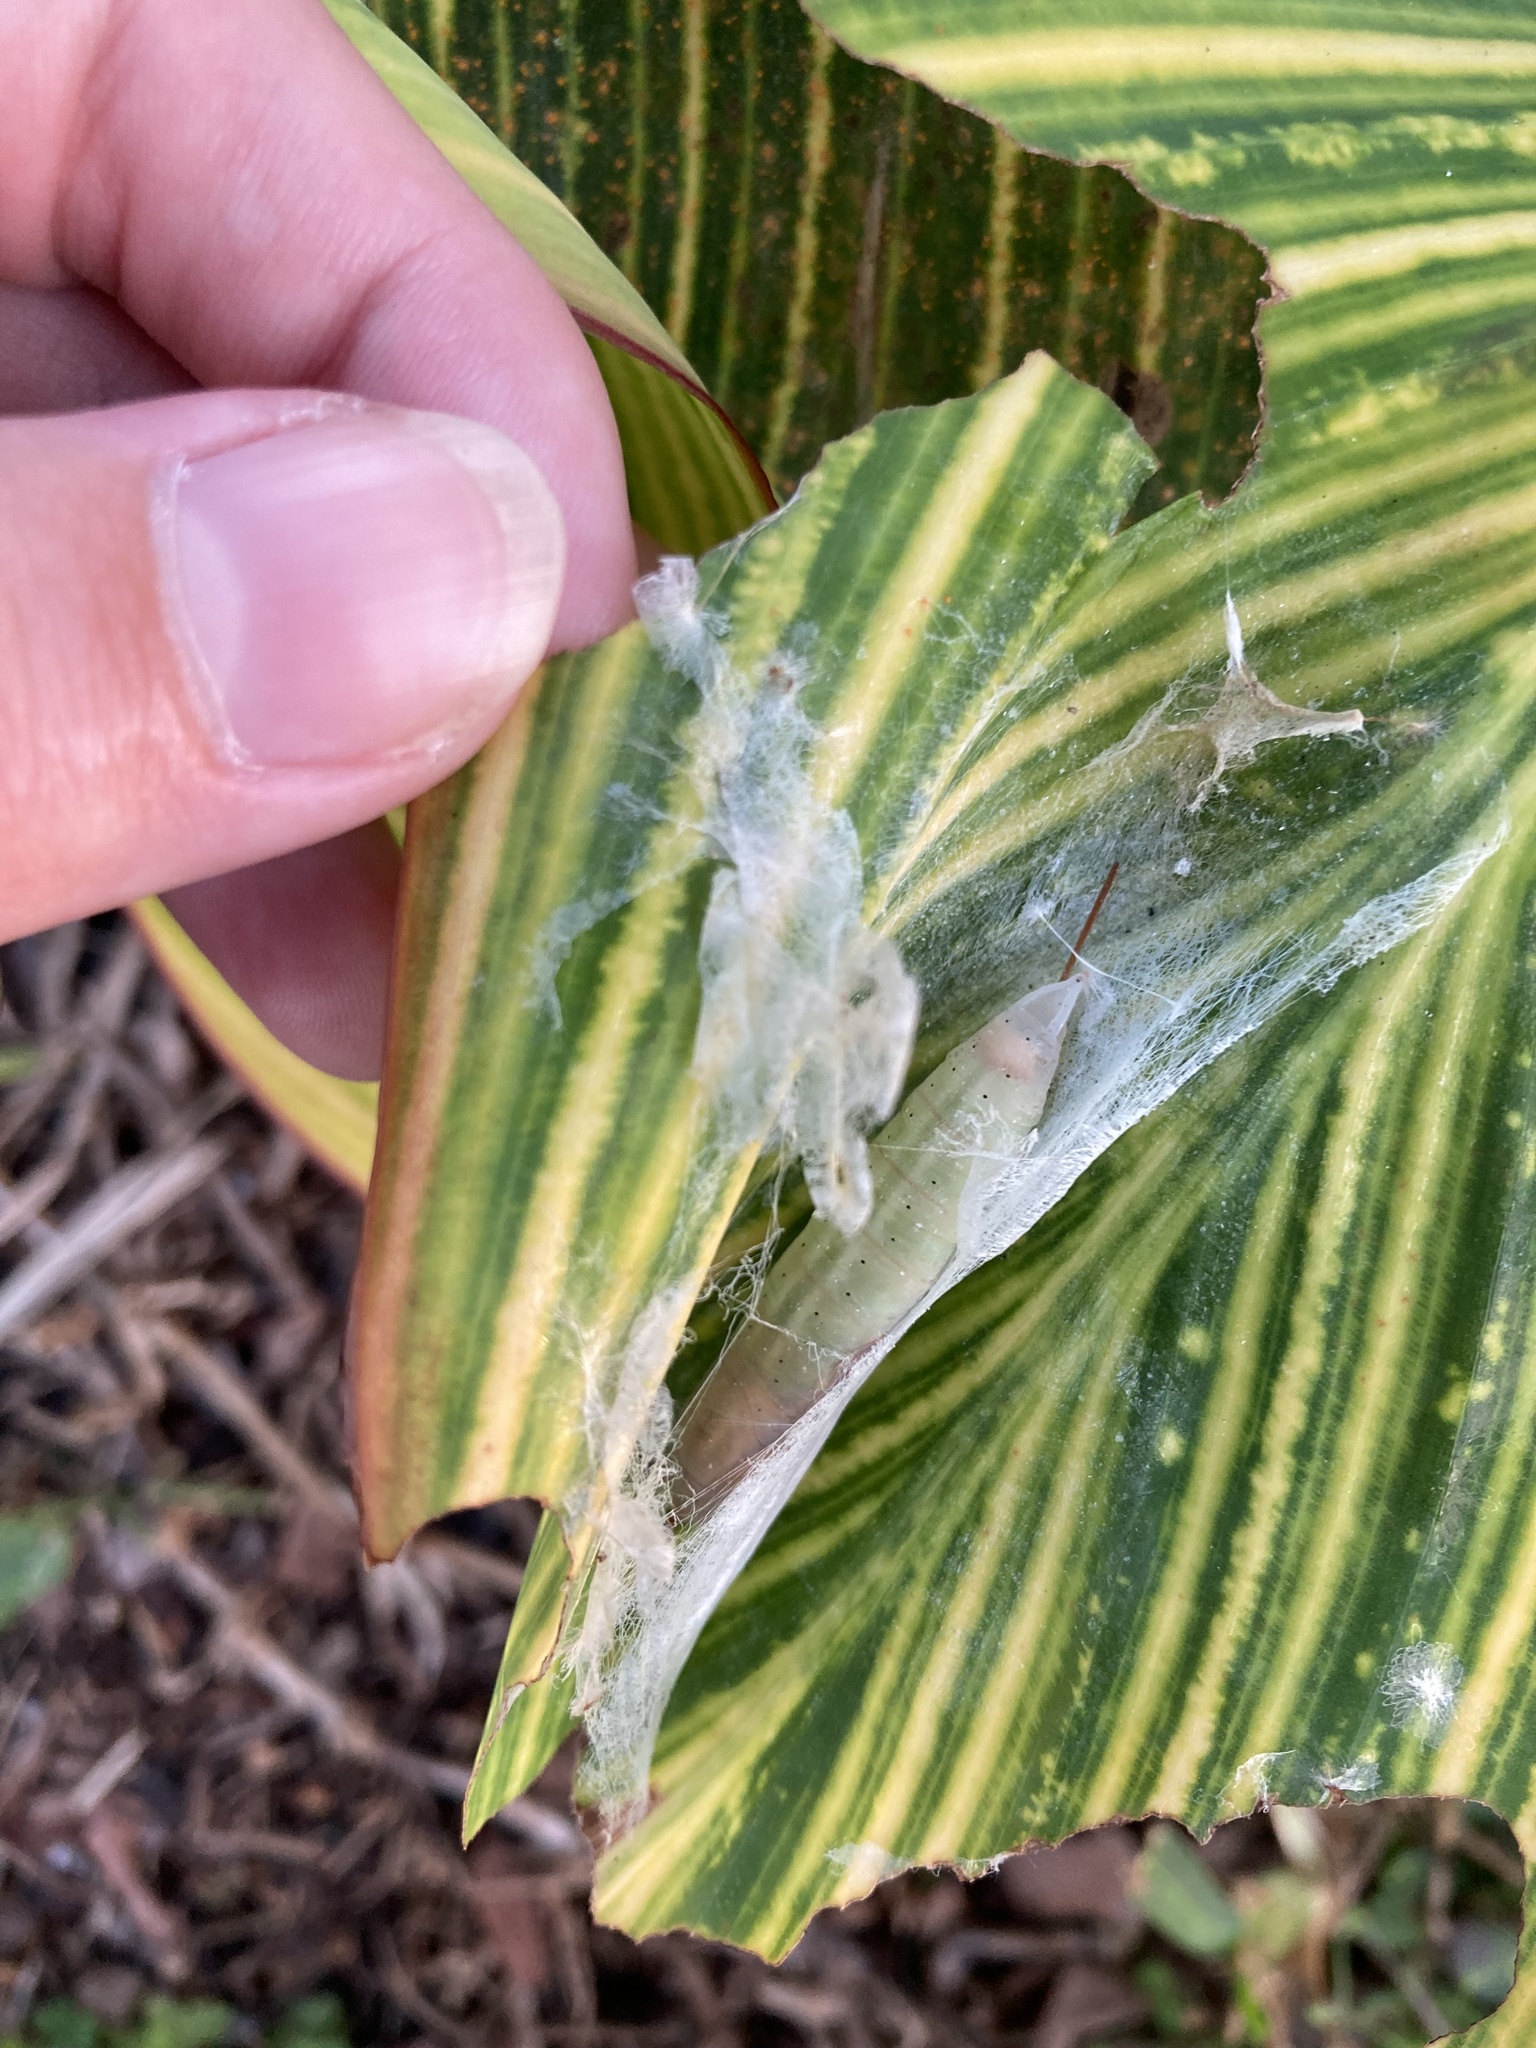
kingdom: Animalia
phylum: Arthropoda
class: Insecta
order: Lepidoptera
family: Hesperiidae
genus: Calpodes
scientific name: Calpodes ethlius
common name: Brazilian skipper
